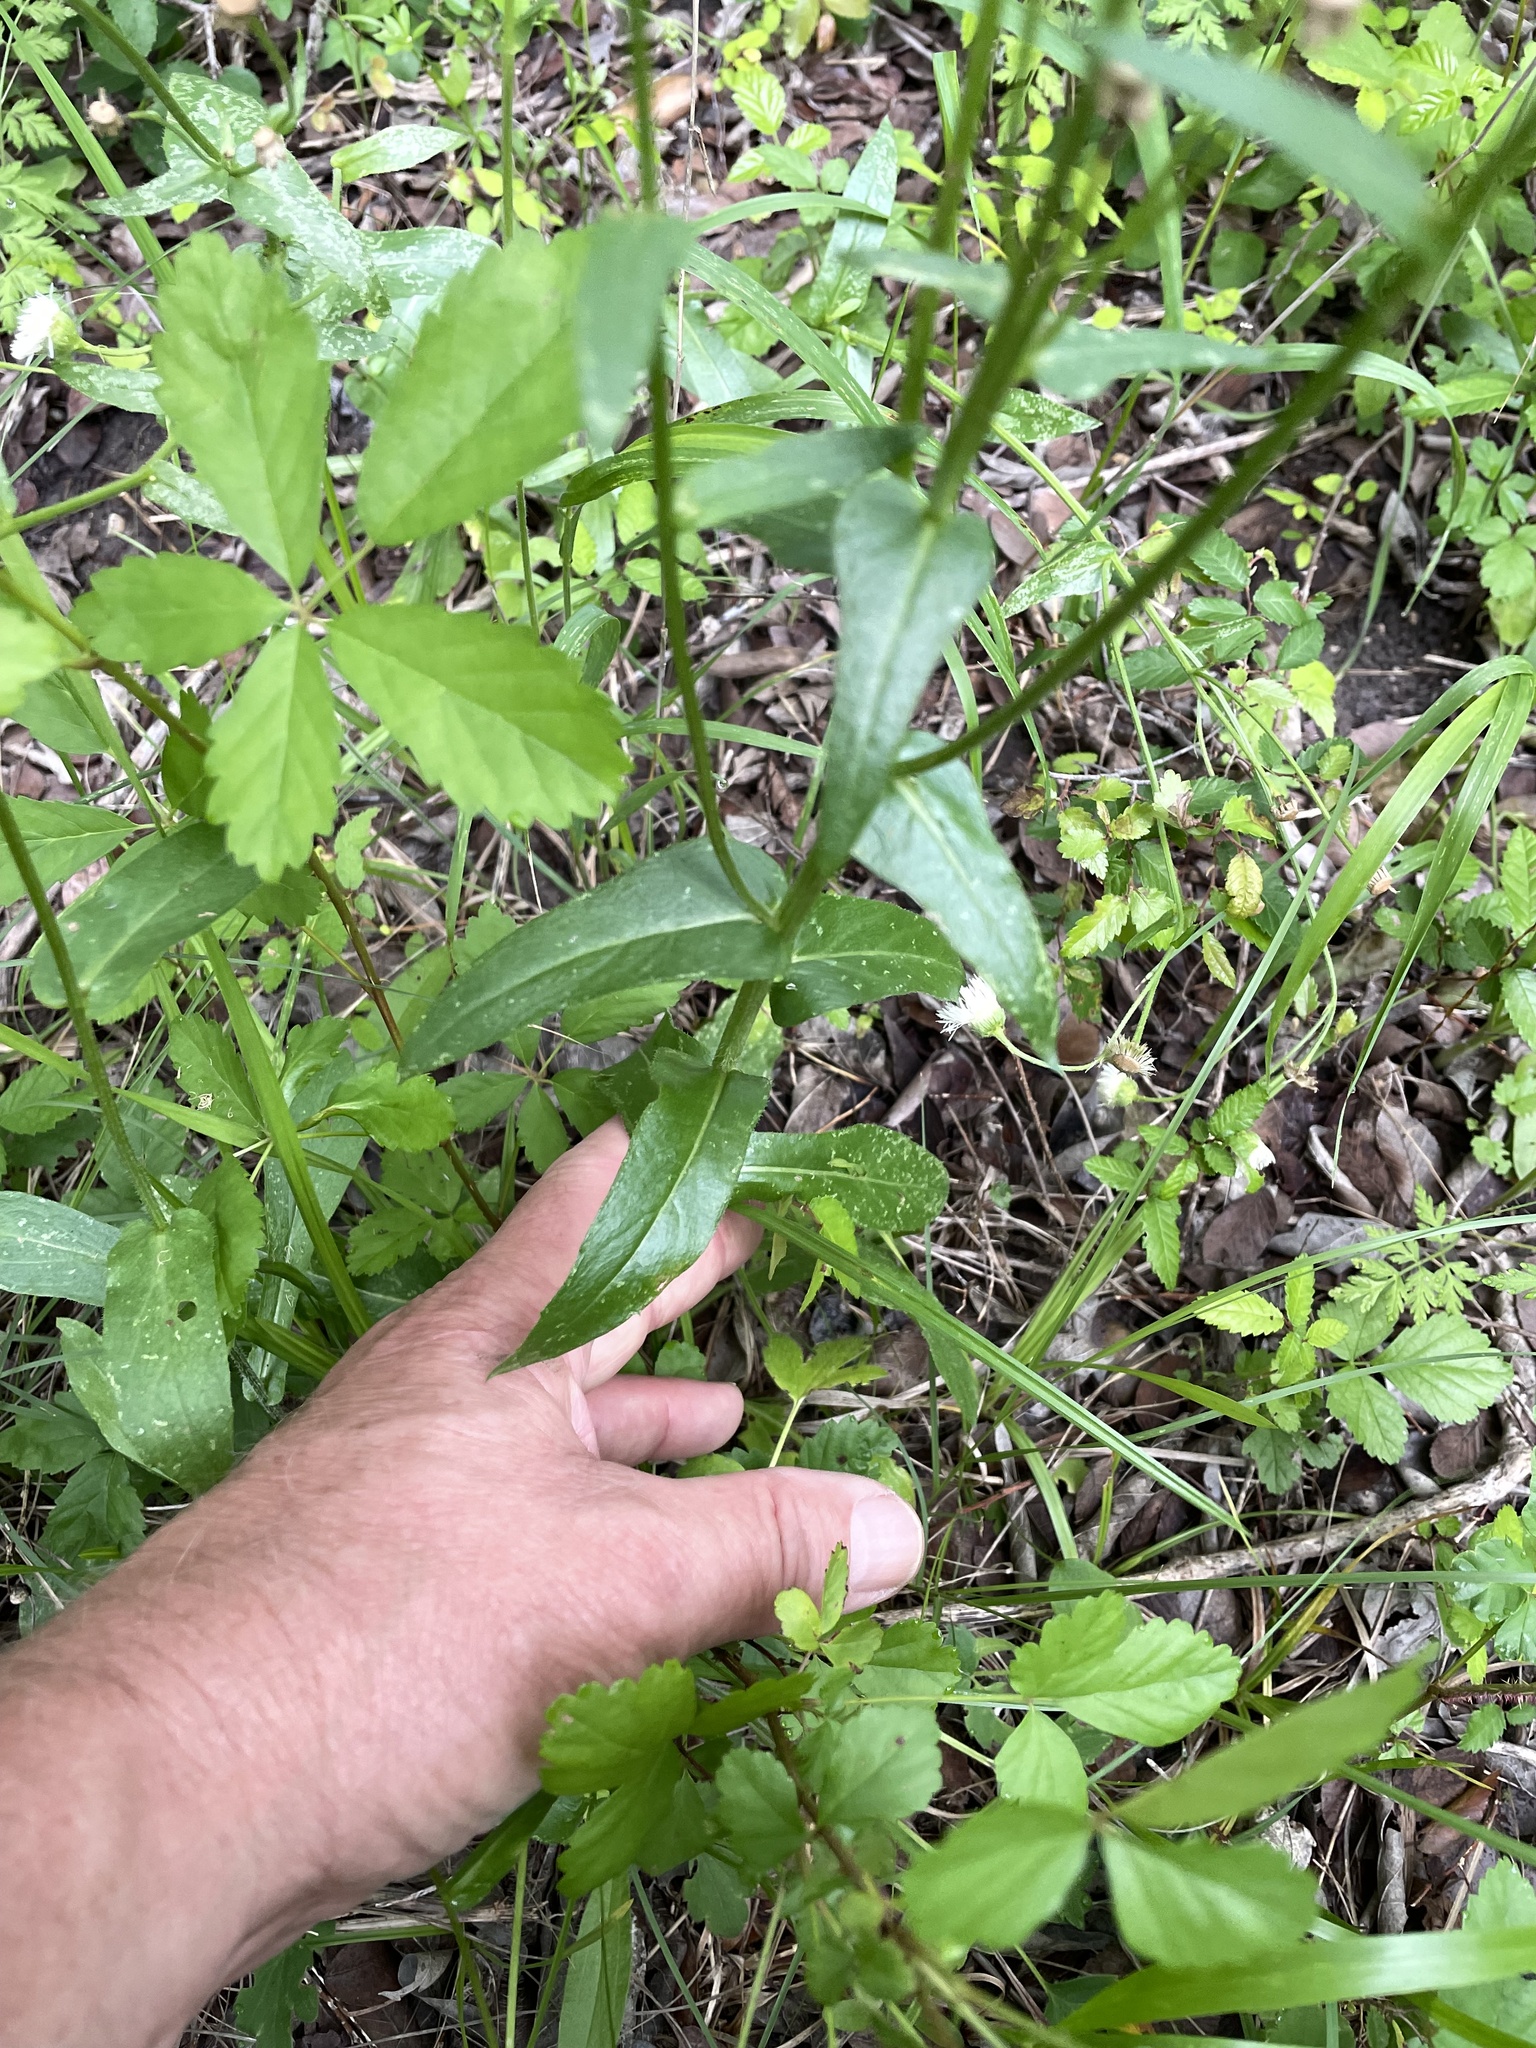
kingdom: Plantae
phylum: Tracheophyta
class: Magnoliopsida
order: Asterales
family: Asteraceae
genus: Erigeron
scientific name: Erigeron philadelphicus
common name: Robin's-plantain
